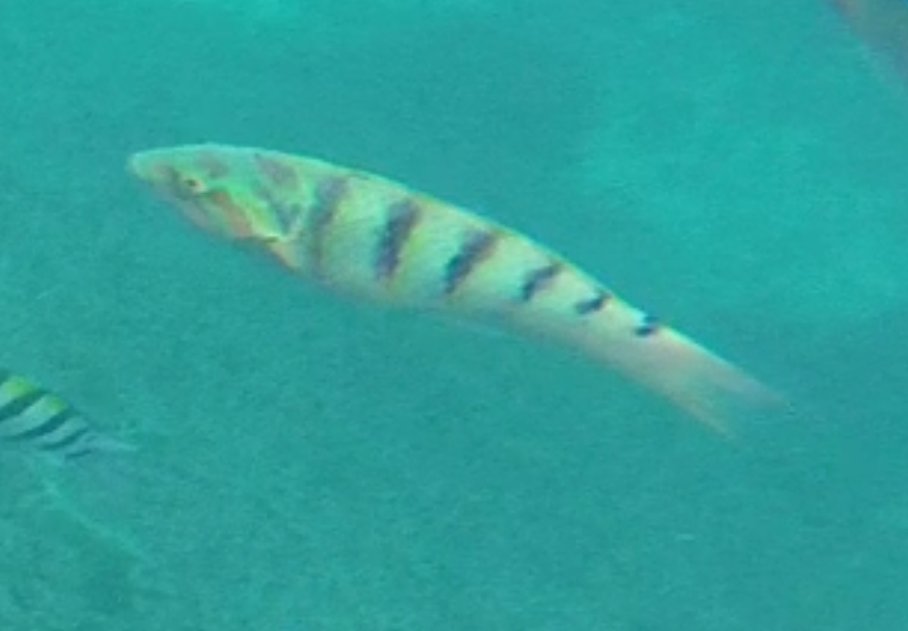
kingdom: Animalia
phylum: Chordata
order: Perciformes
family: Labridae
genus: Thalassoma
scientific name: Thalassoma hardwicke
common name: Sixbar wrasse
